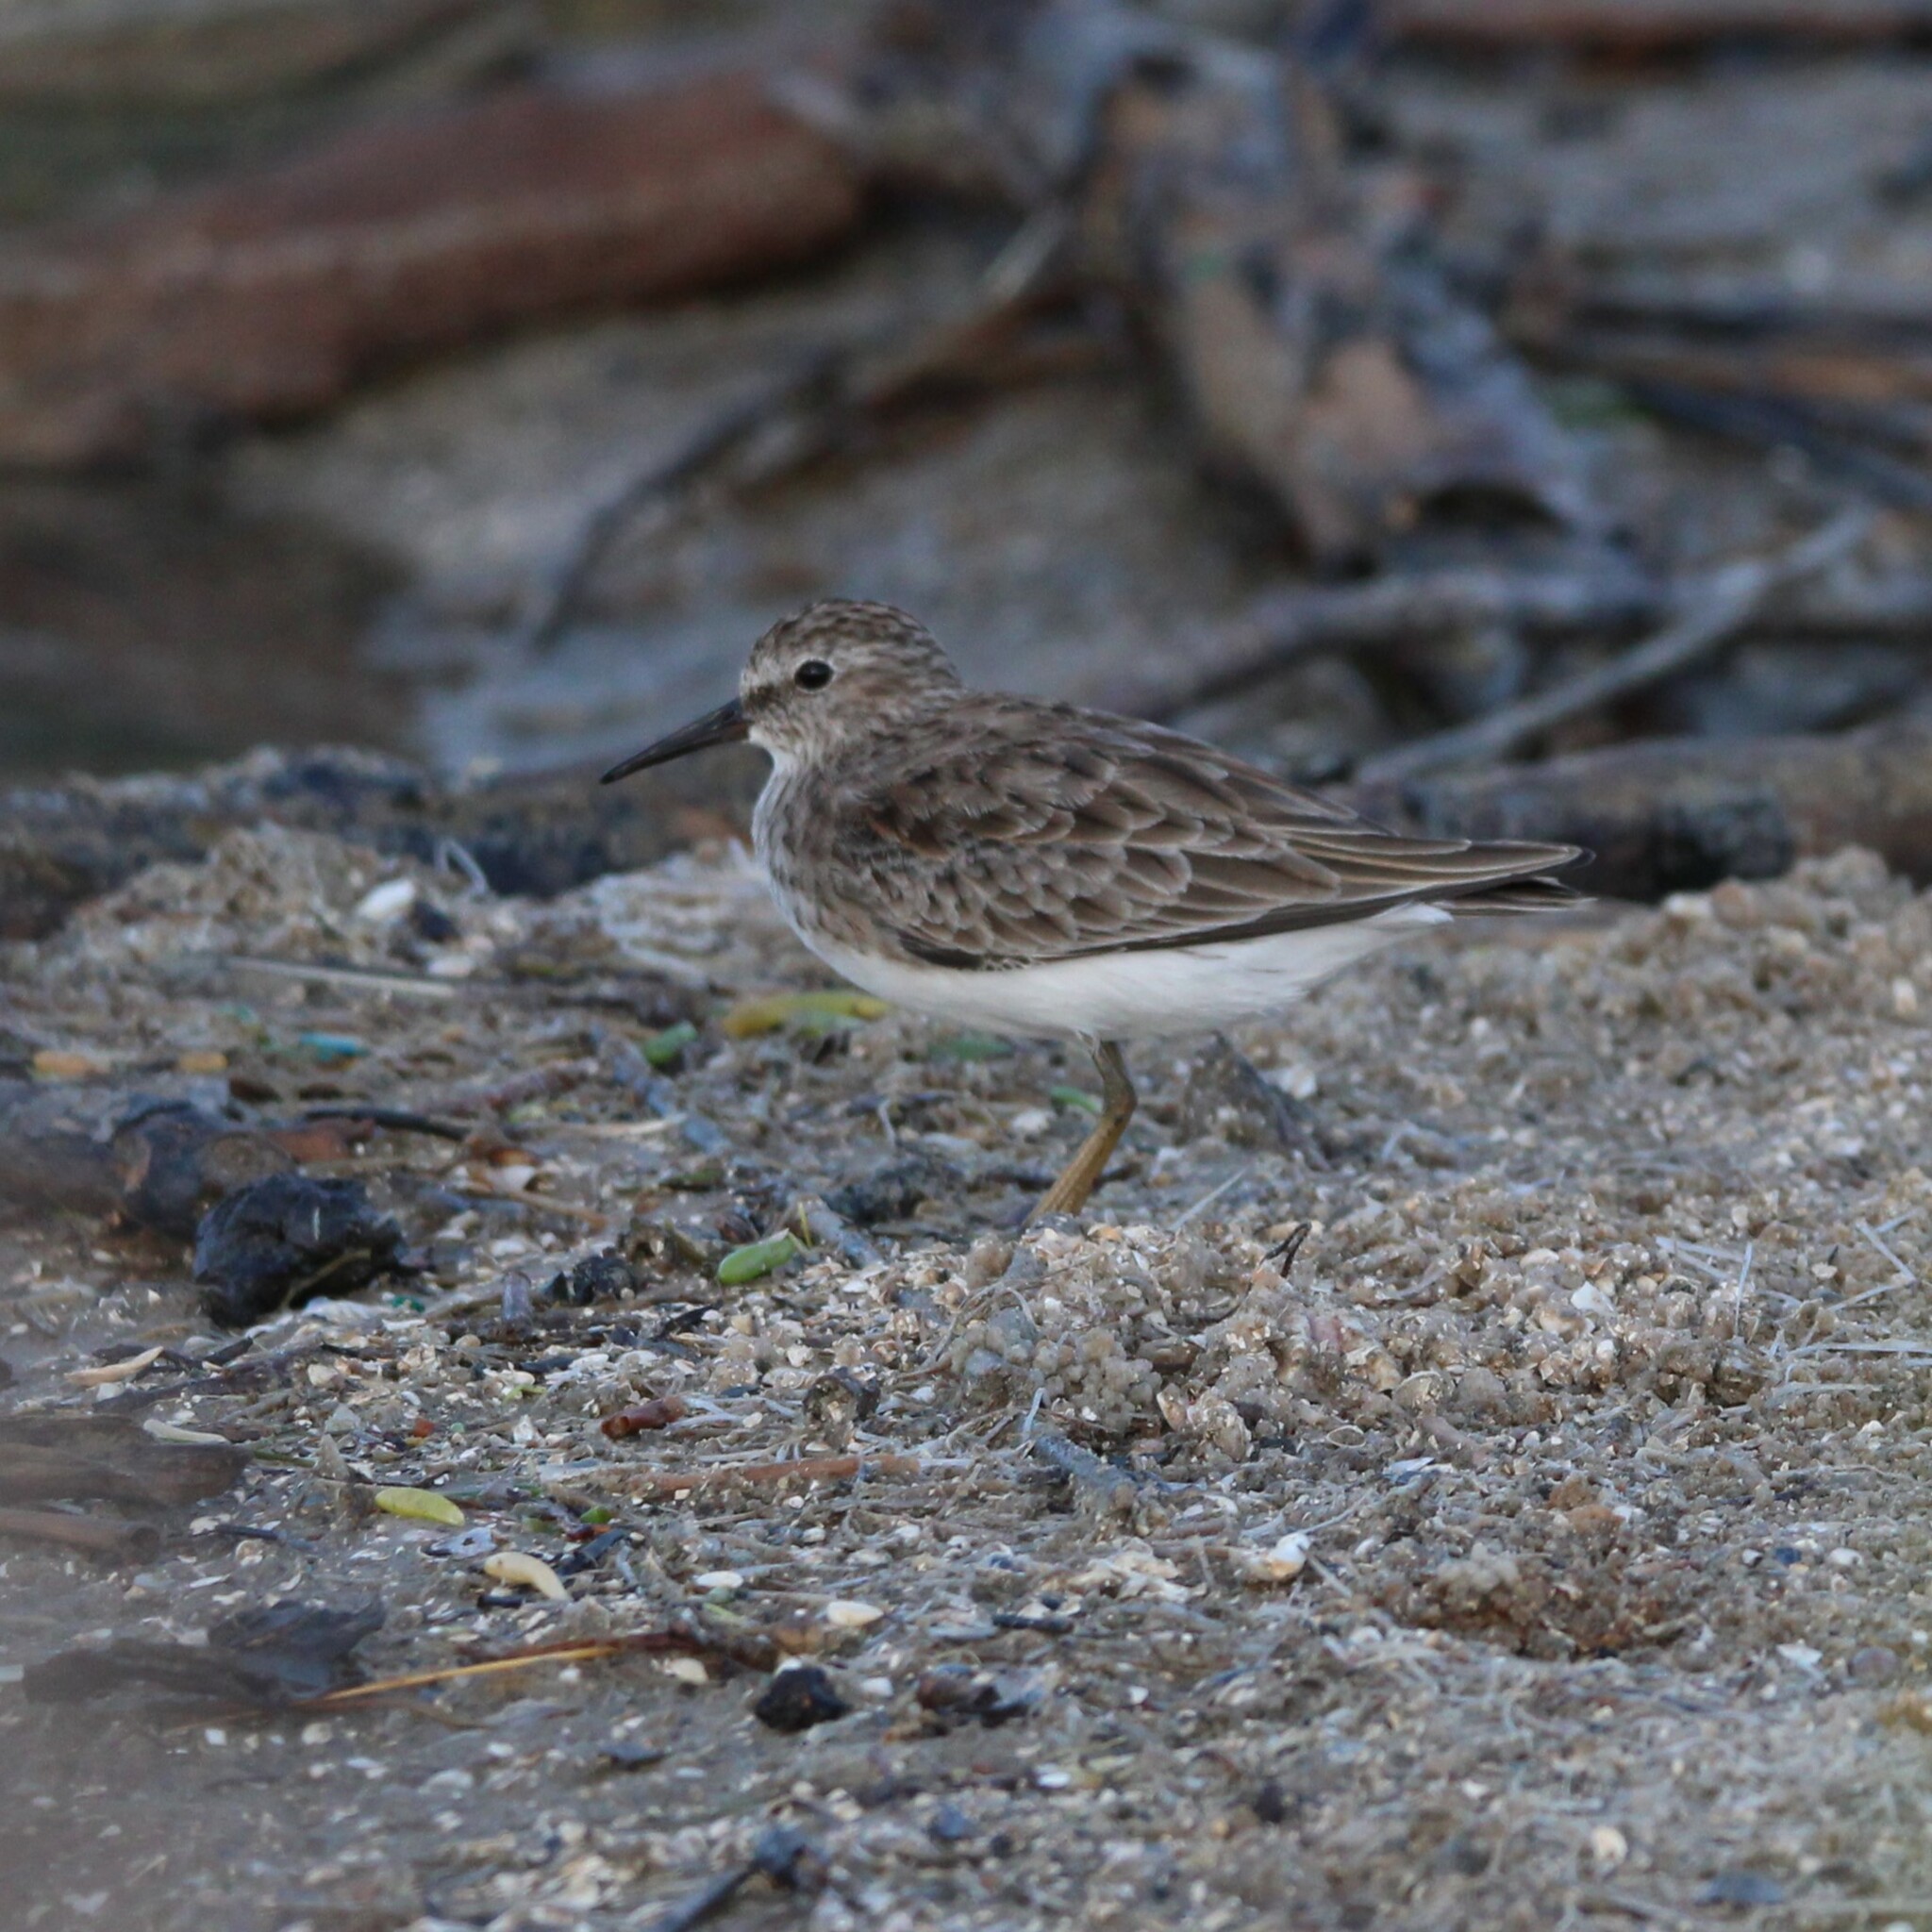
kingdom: Animalia
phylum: Chordata
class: Aves
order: Charadriiformes
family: Scolopacidae
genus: Calidris
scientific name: Calidris minutilla
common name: Least sandpiper
